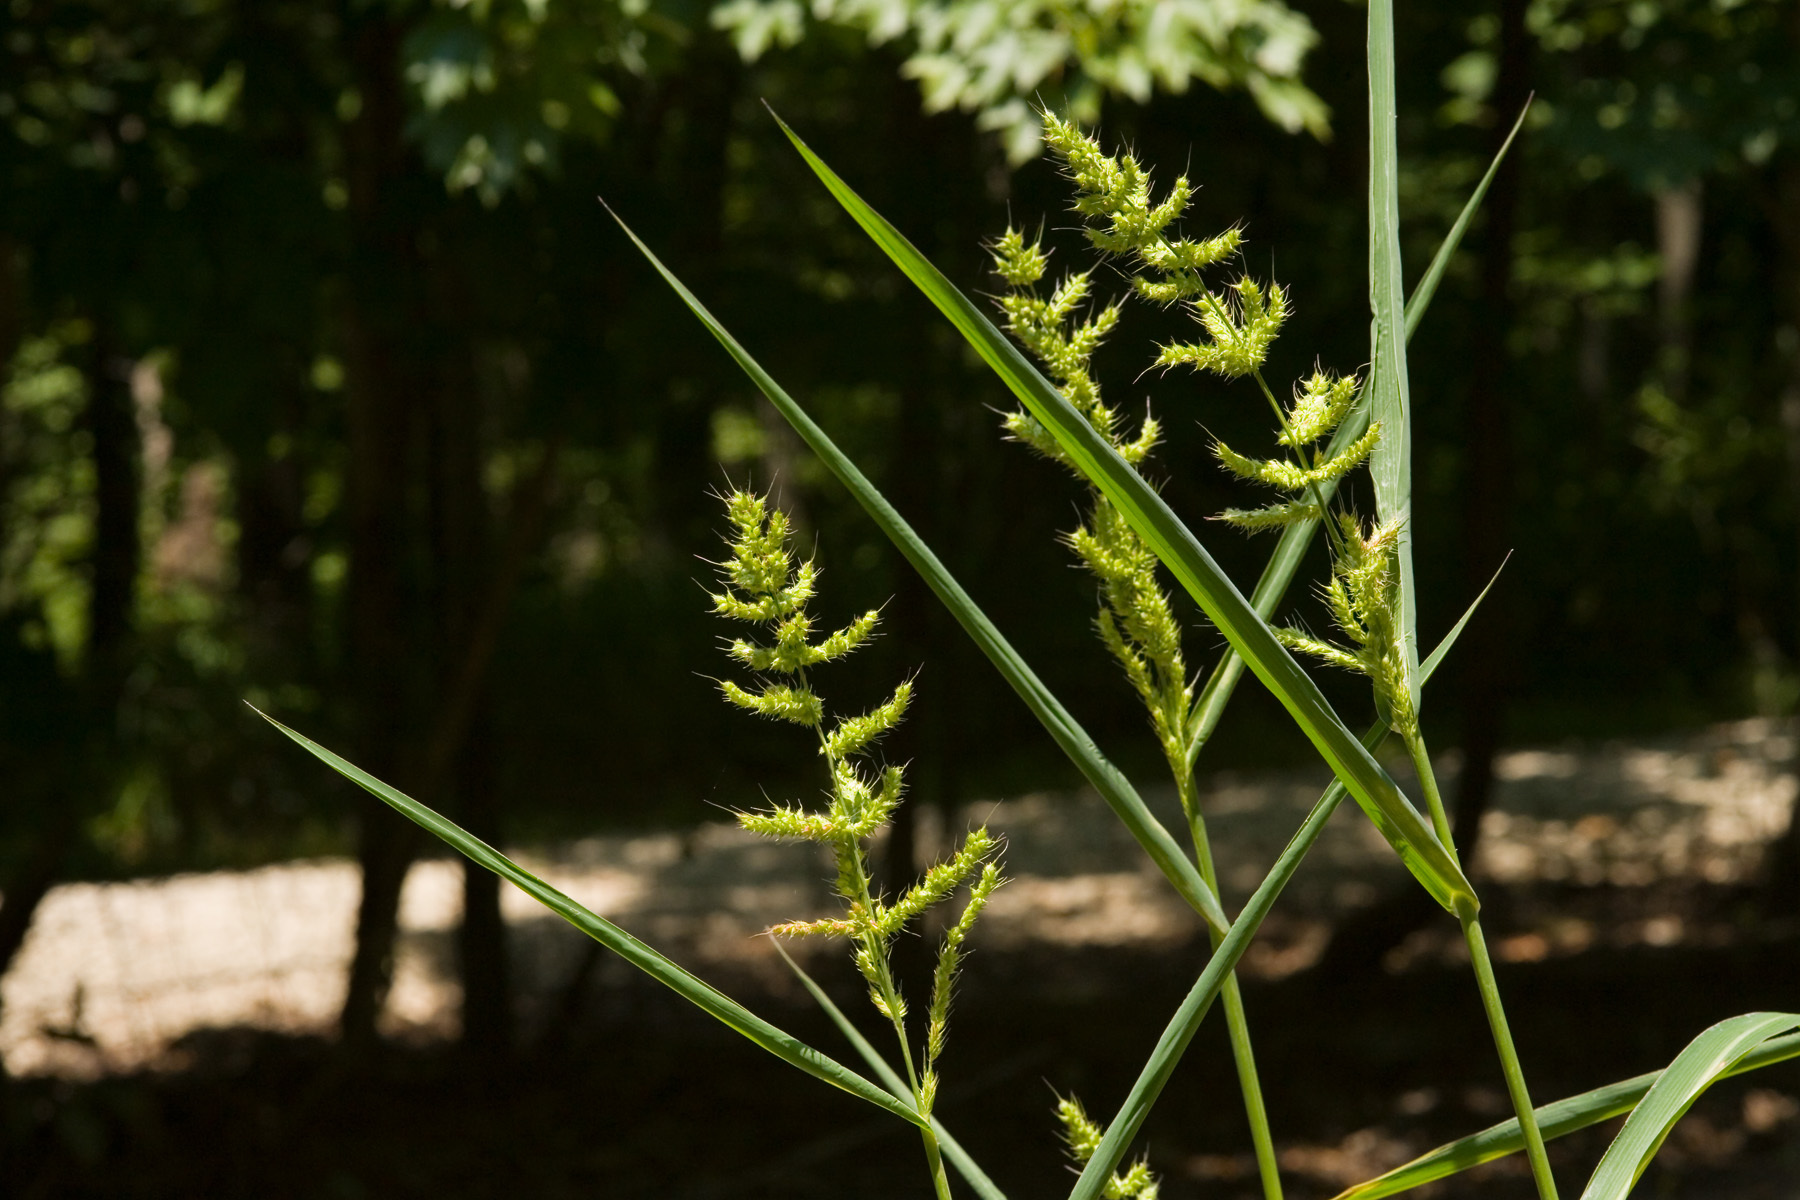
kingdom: Plantae
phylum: Tracheophyta
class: Liliopsida
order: Poales
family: Poaceae
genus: Echinochloa
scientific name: Echinochloa muricata
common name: American barnyard grass
